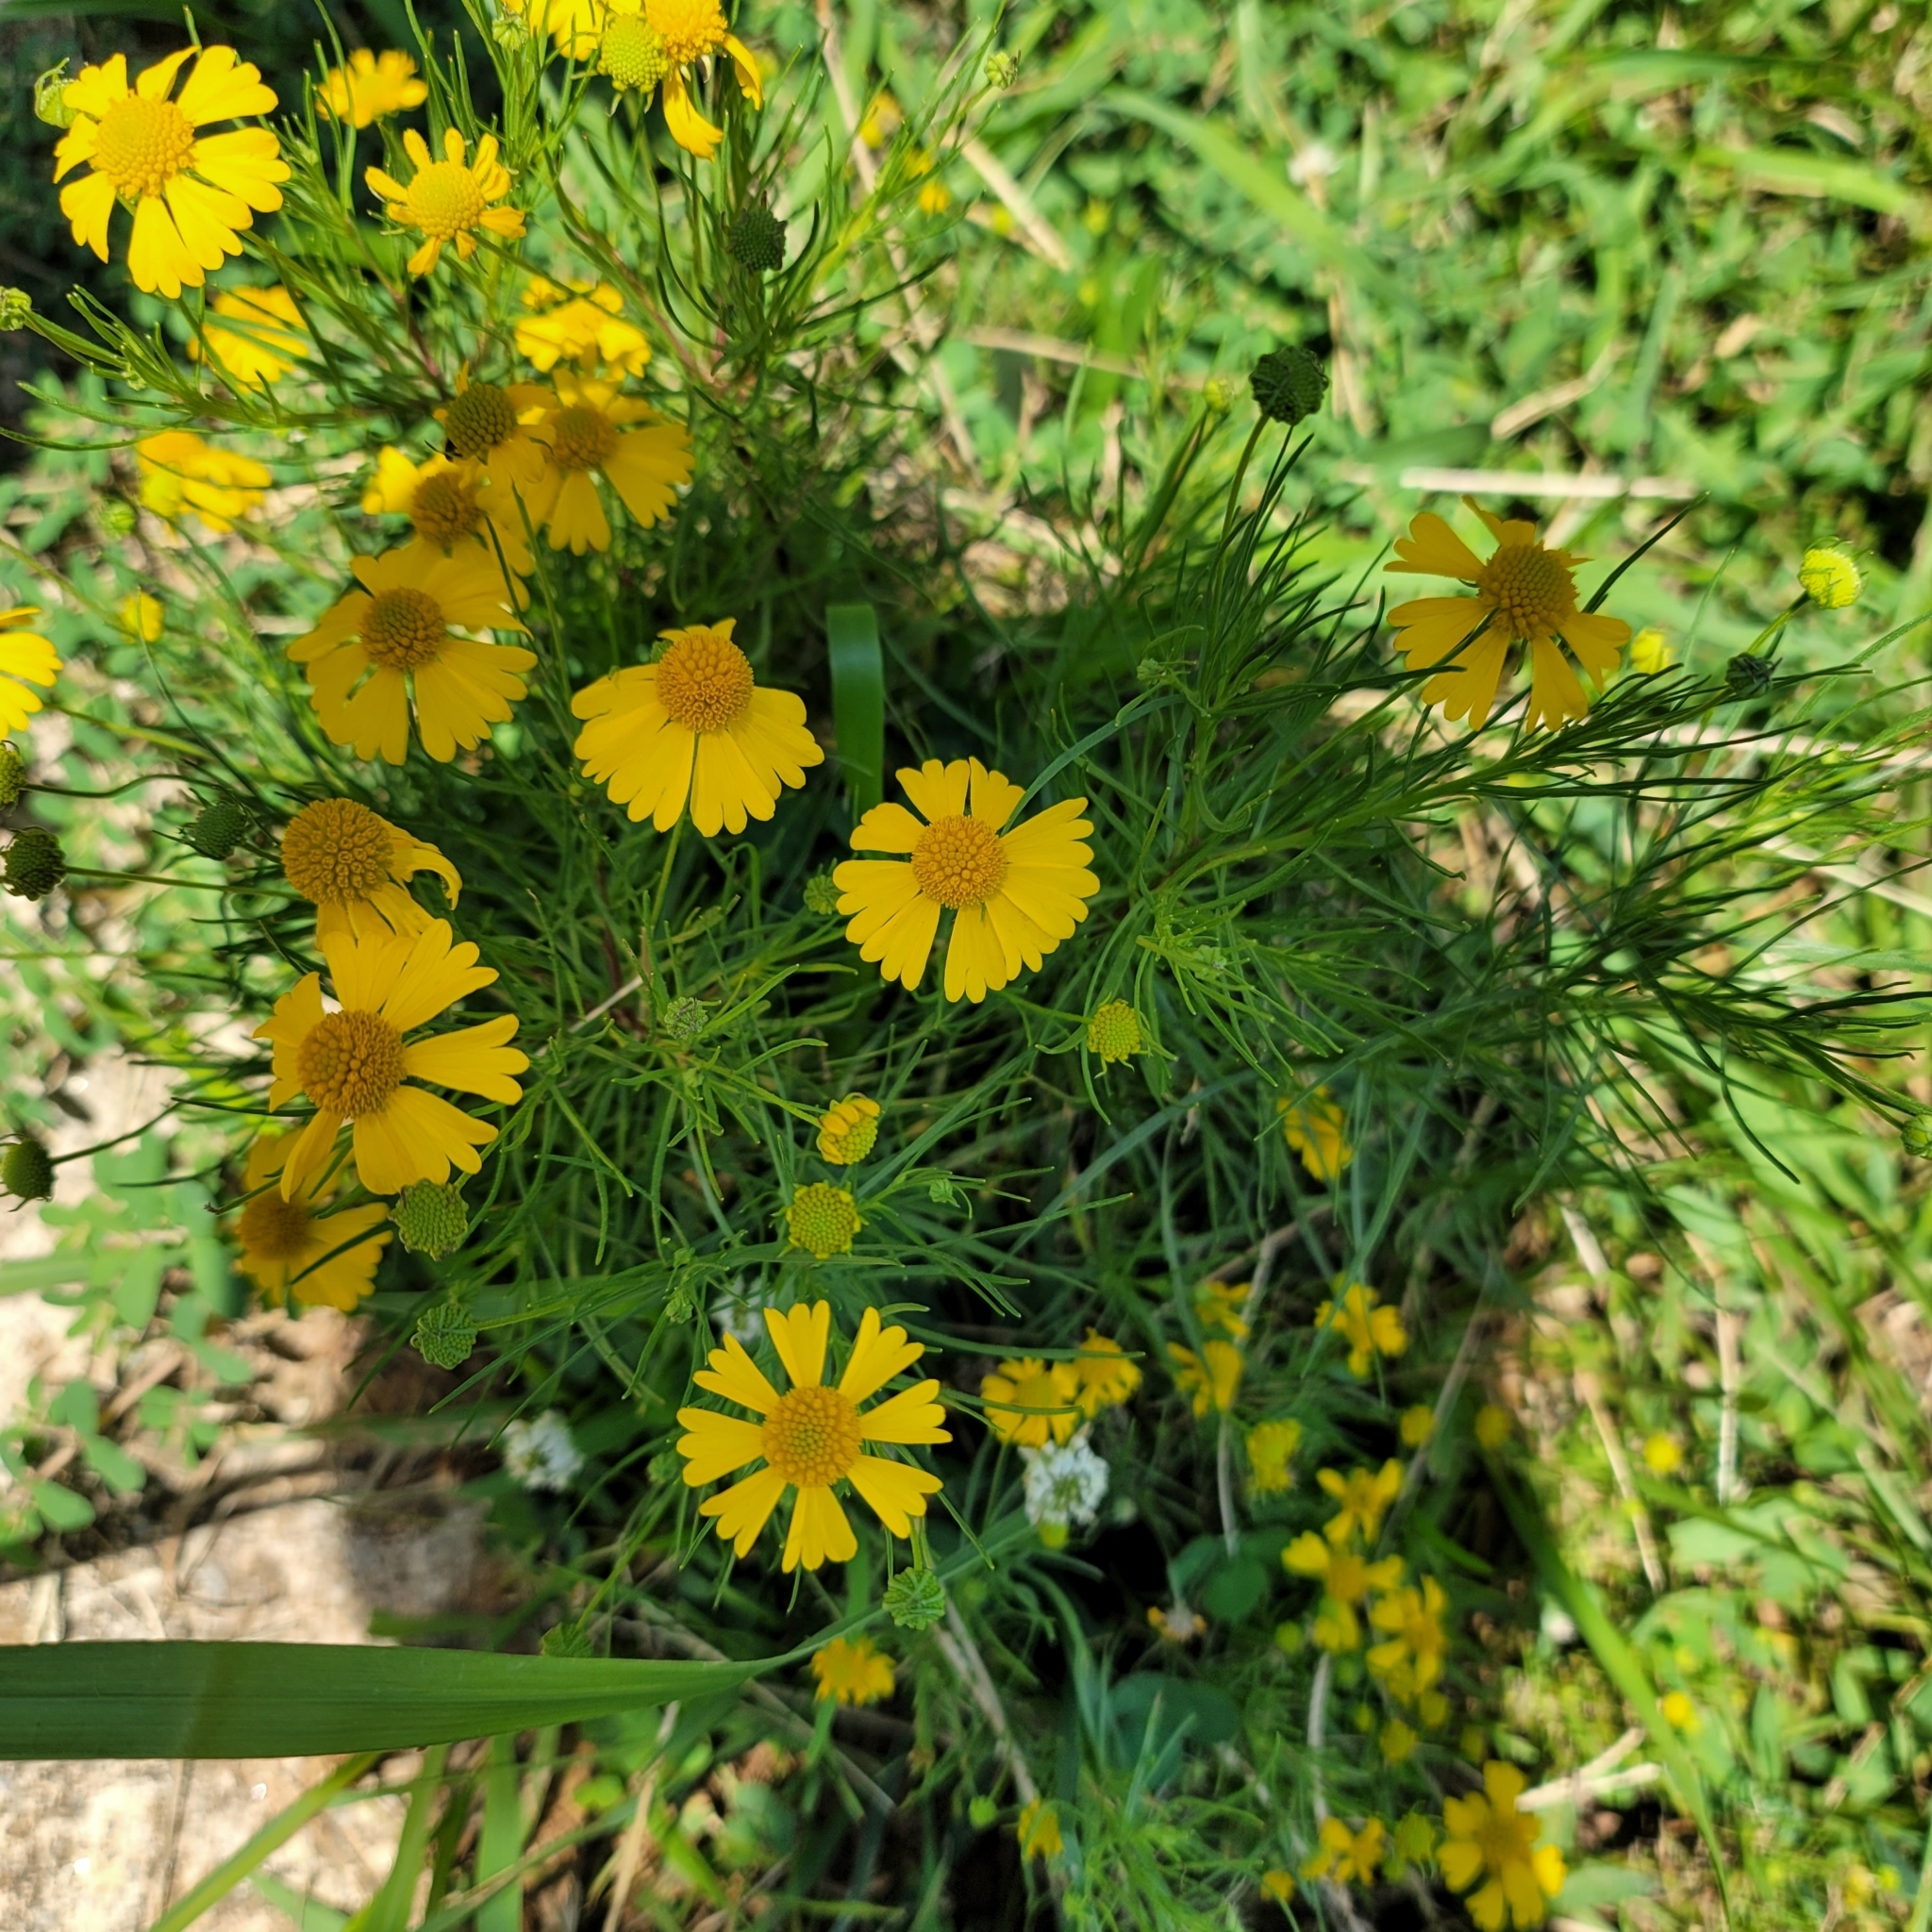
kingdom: Plantae
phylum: Tracheophyta
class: Magnoliopsida
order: Asterales
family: Asteraceae
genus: Helenium
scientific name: Helenium amarum
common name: Bitter sneezeweed
